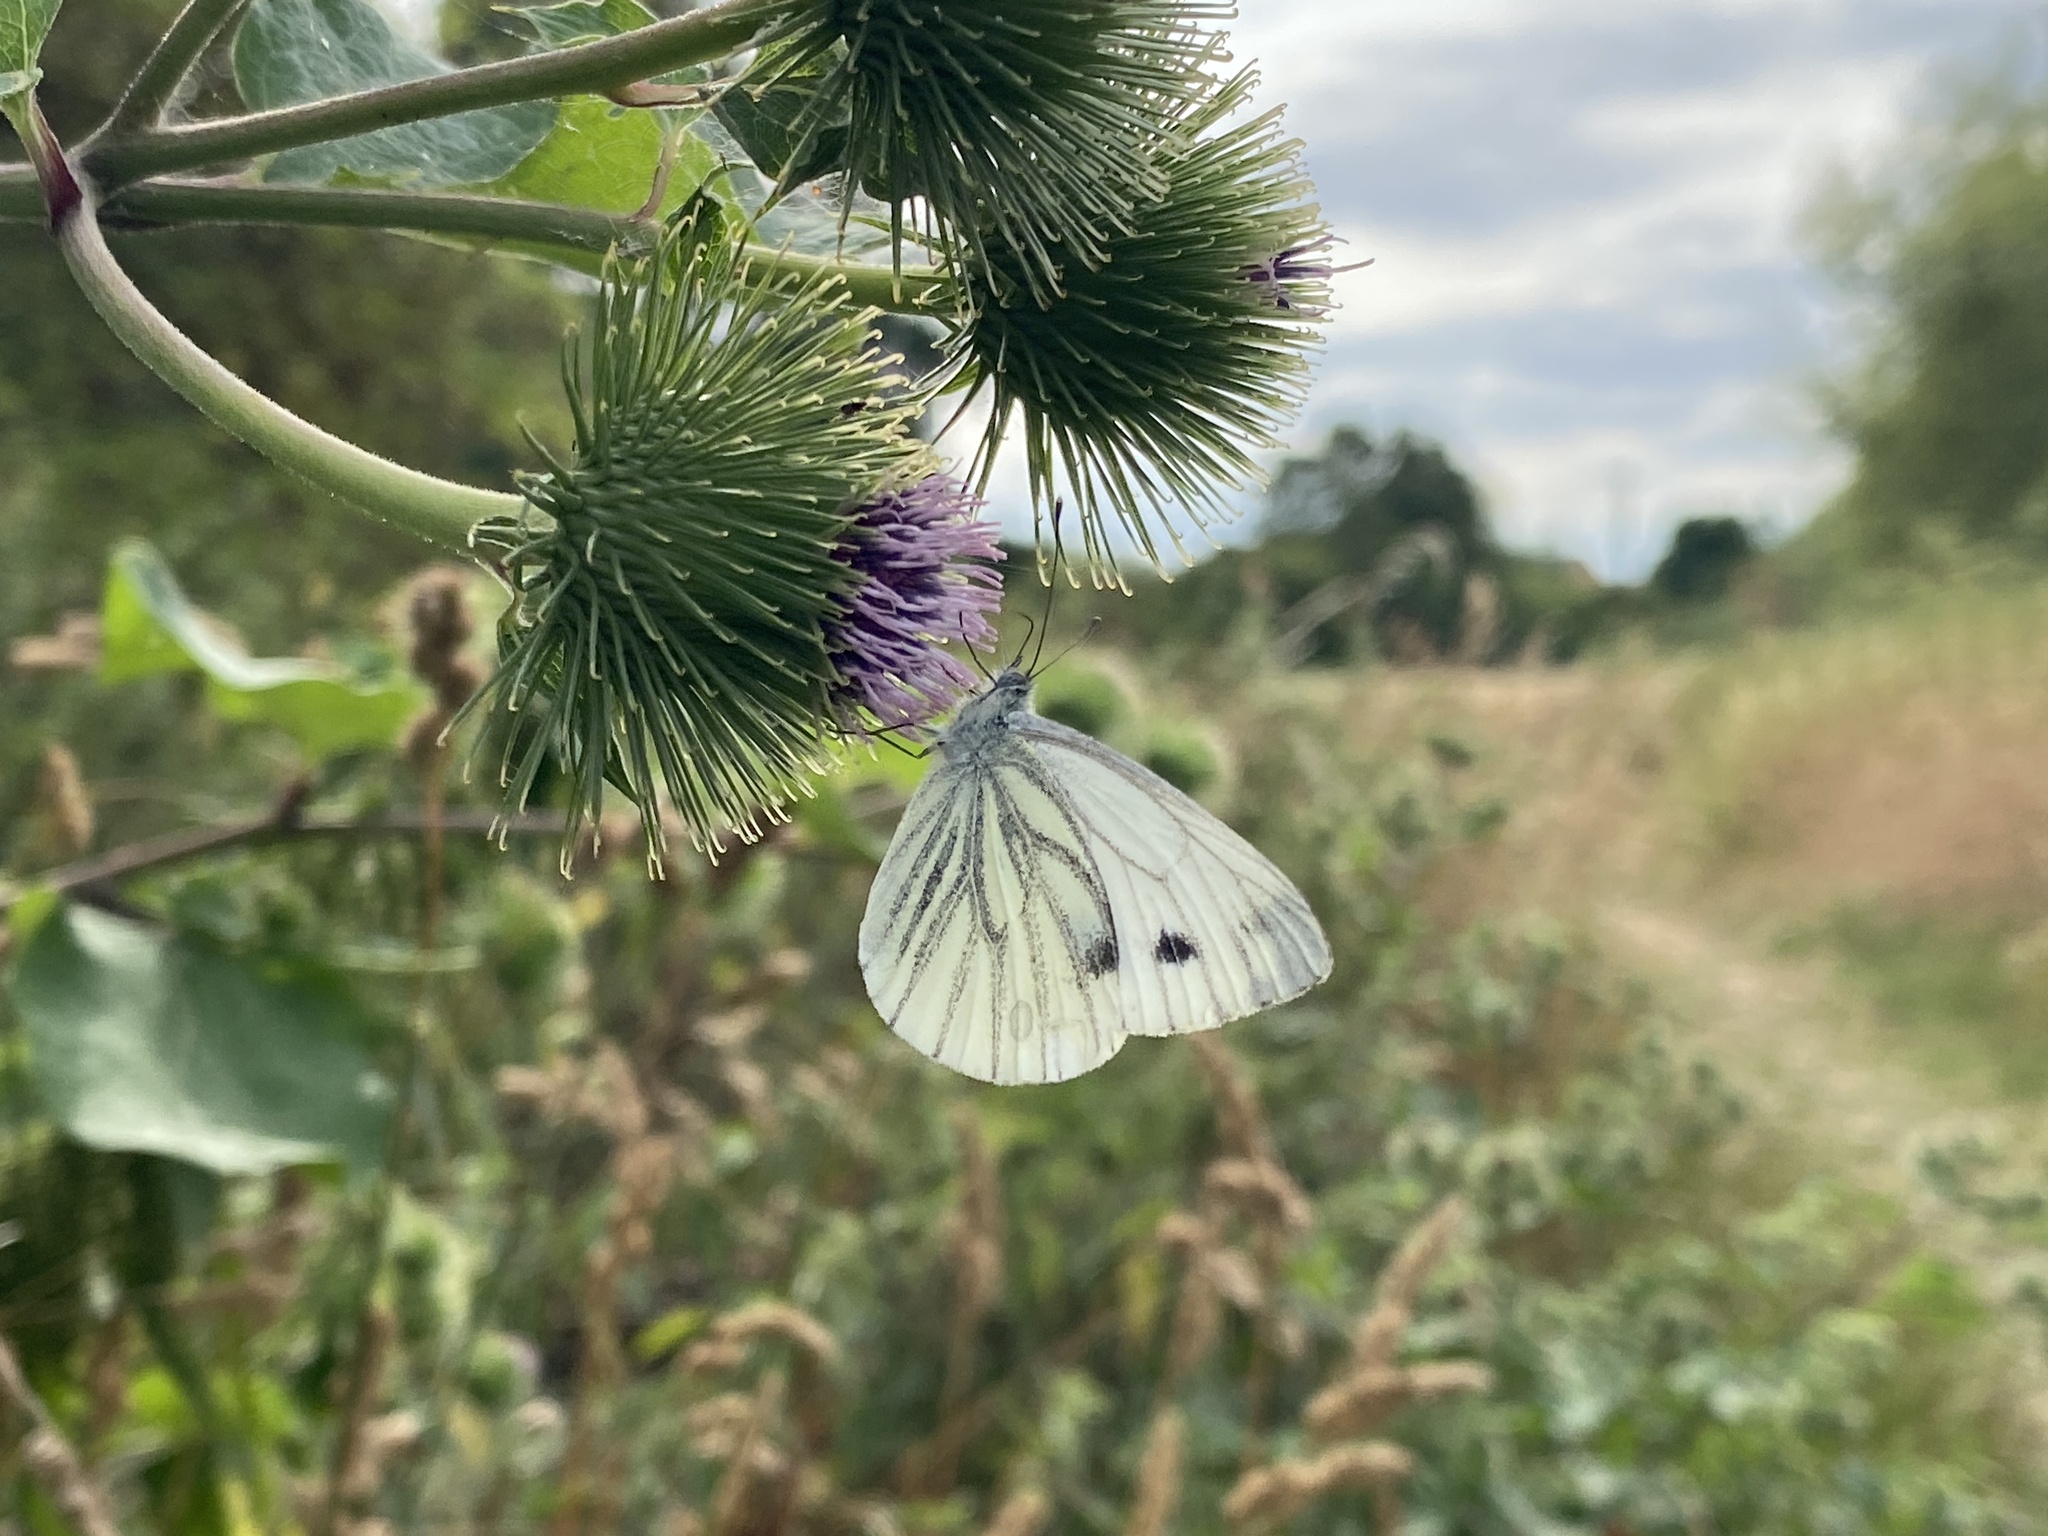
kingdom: Animalia
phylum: Arthropoda
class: Insecta
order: Lepidoptera
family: Pieridae
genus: Pieris
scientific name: Pieris napi
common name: Green-veined white
